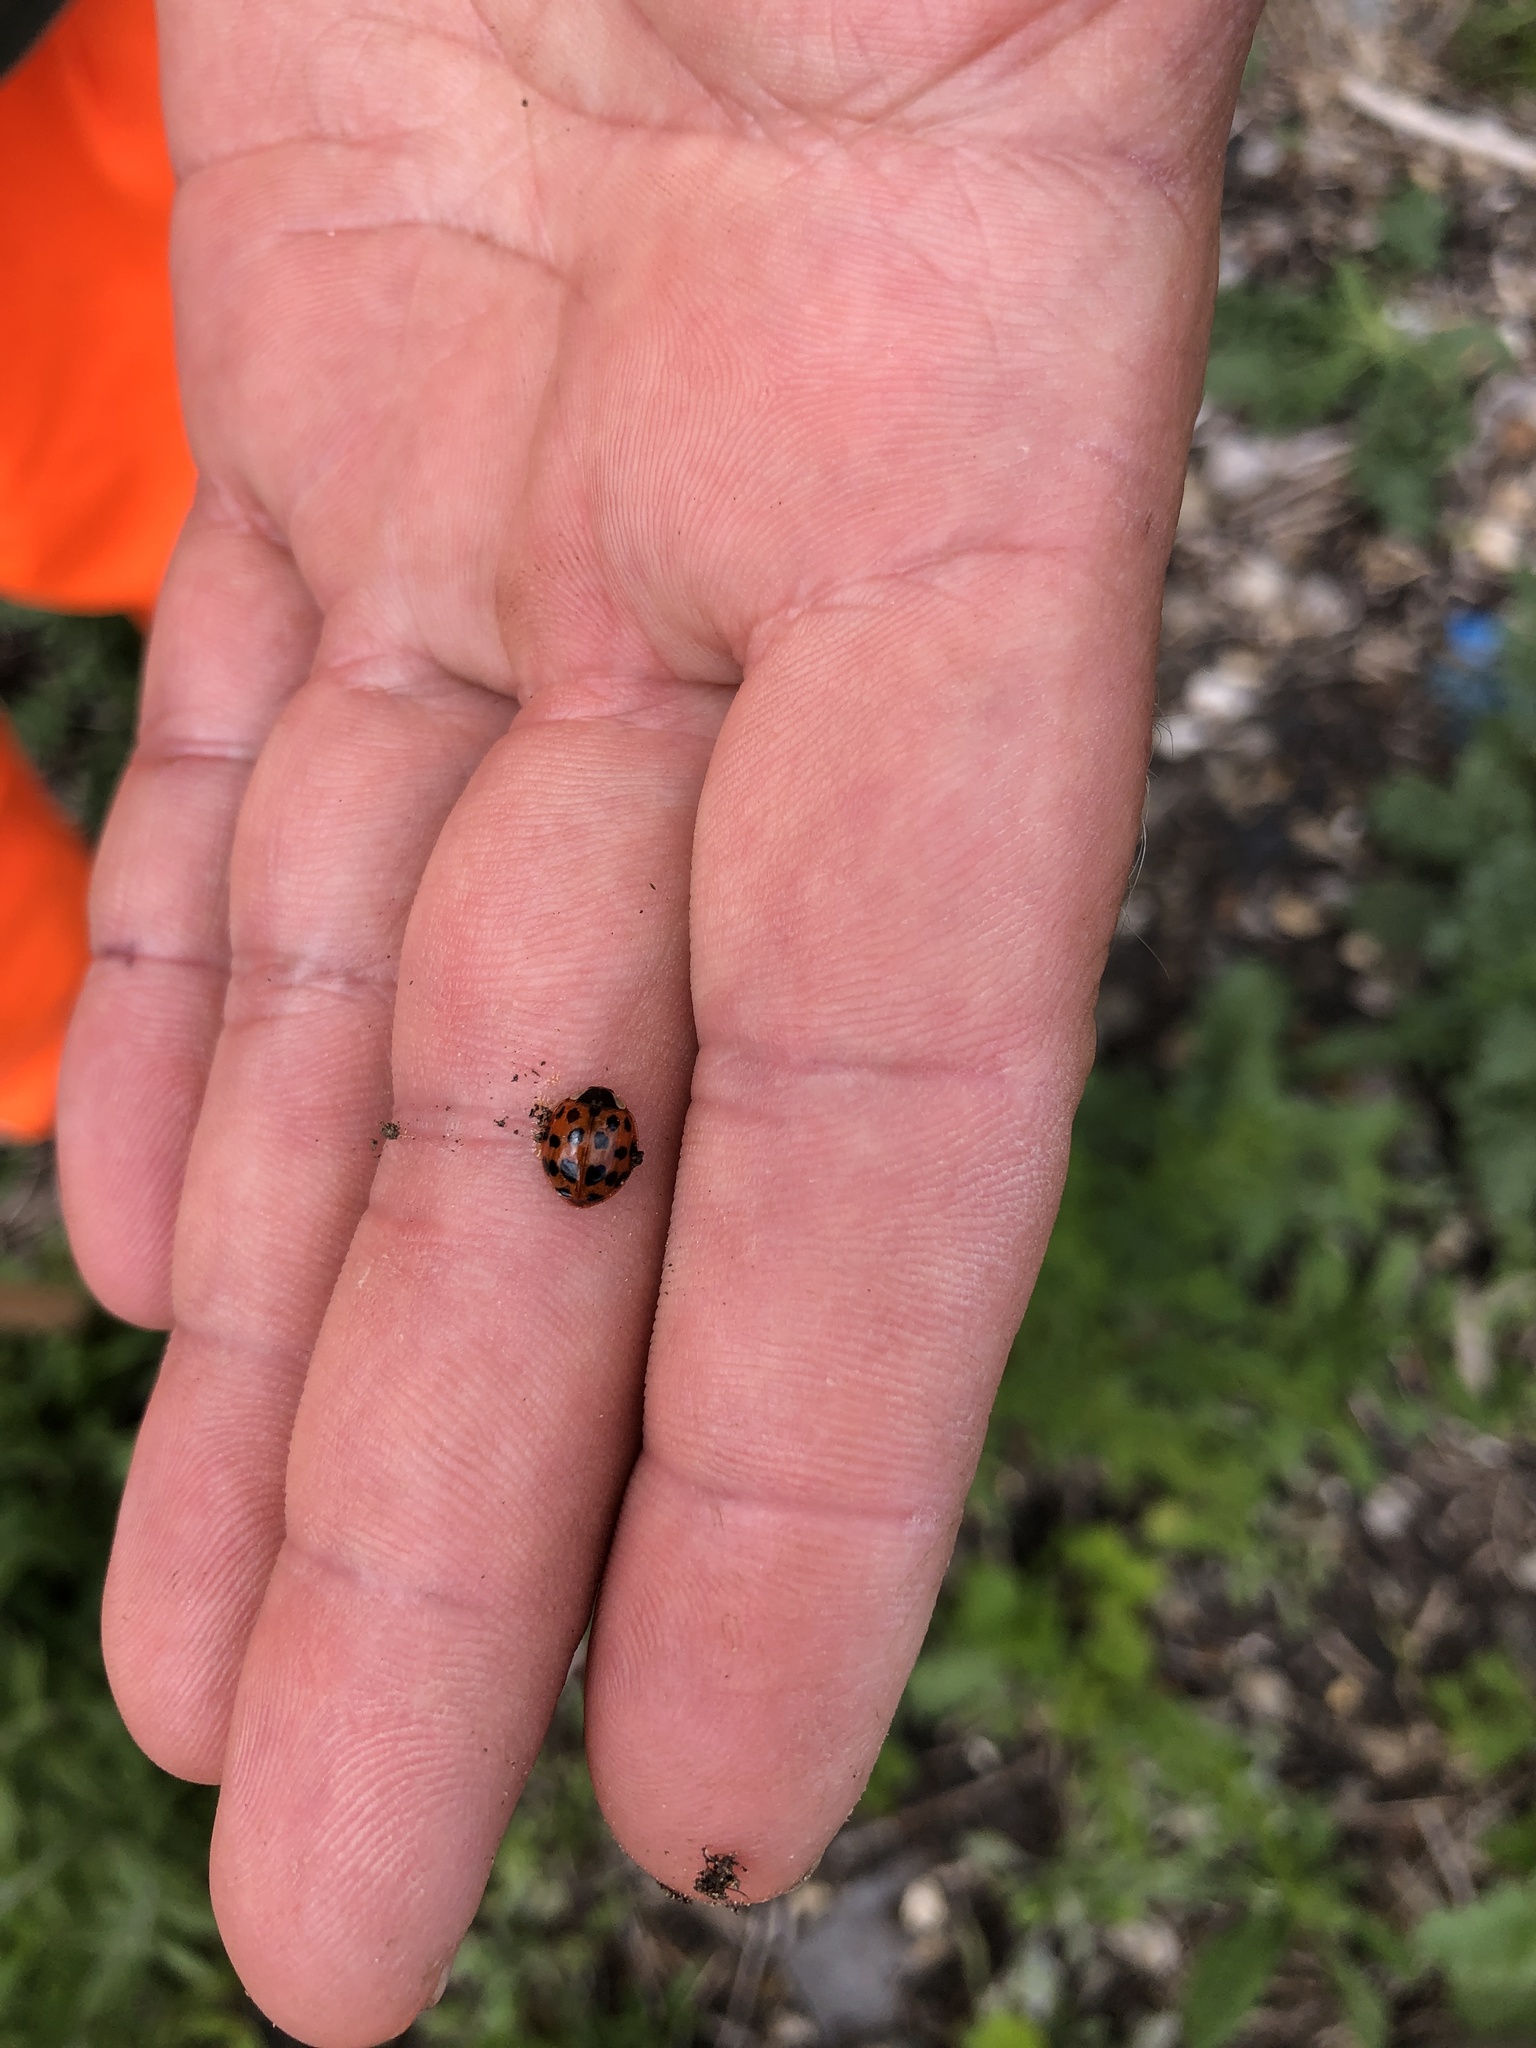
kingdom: Animalia
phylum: Arthropoda
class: Insecta
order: Coleoptera
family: Coccinellidae
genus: Harmonia
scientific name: Harmonia axyridis
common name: Harlequin ladybird
